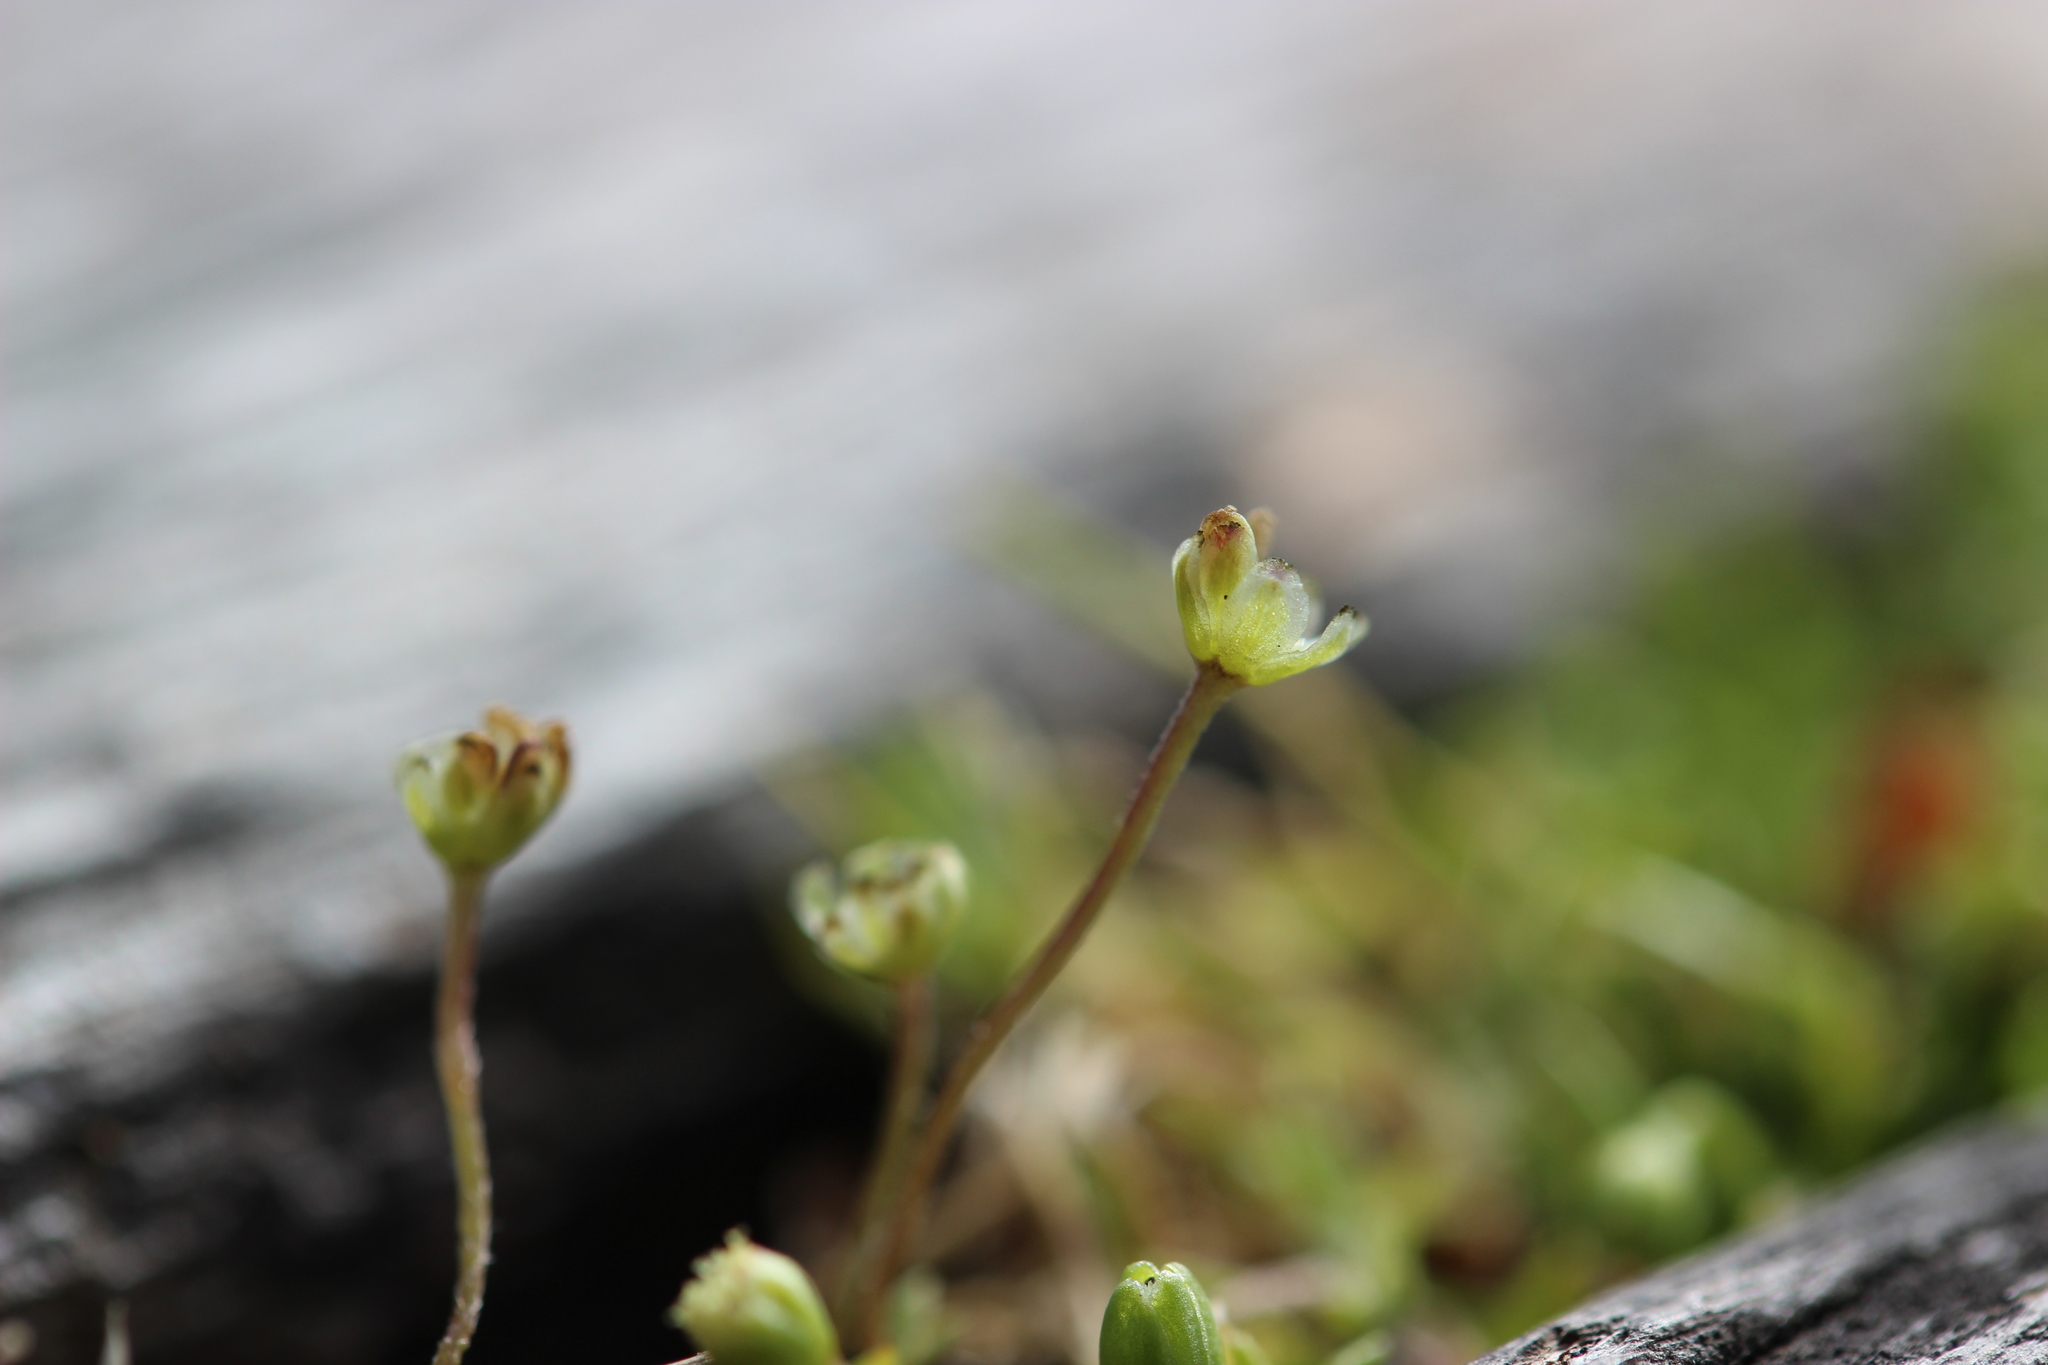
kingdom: Plantae
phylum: Tracheophyta
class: Magnoliopsida
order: Caryophyllales
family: Caryophyllaceae
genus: Sagina
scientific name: Sagina procumbens
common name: Procumbent pearlwort
